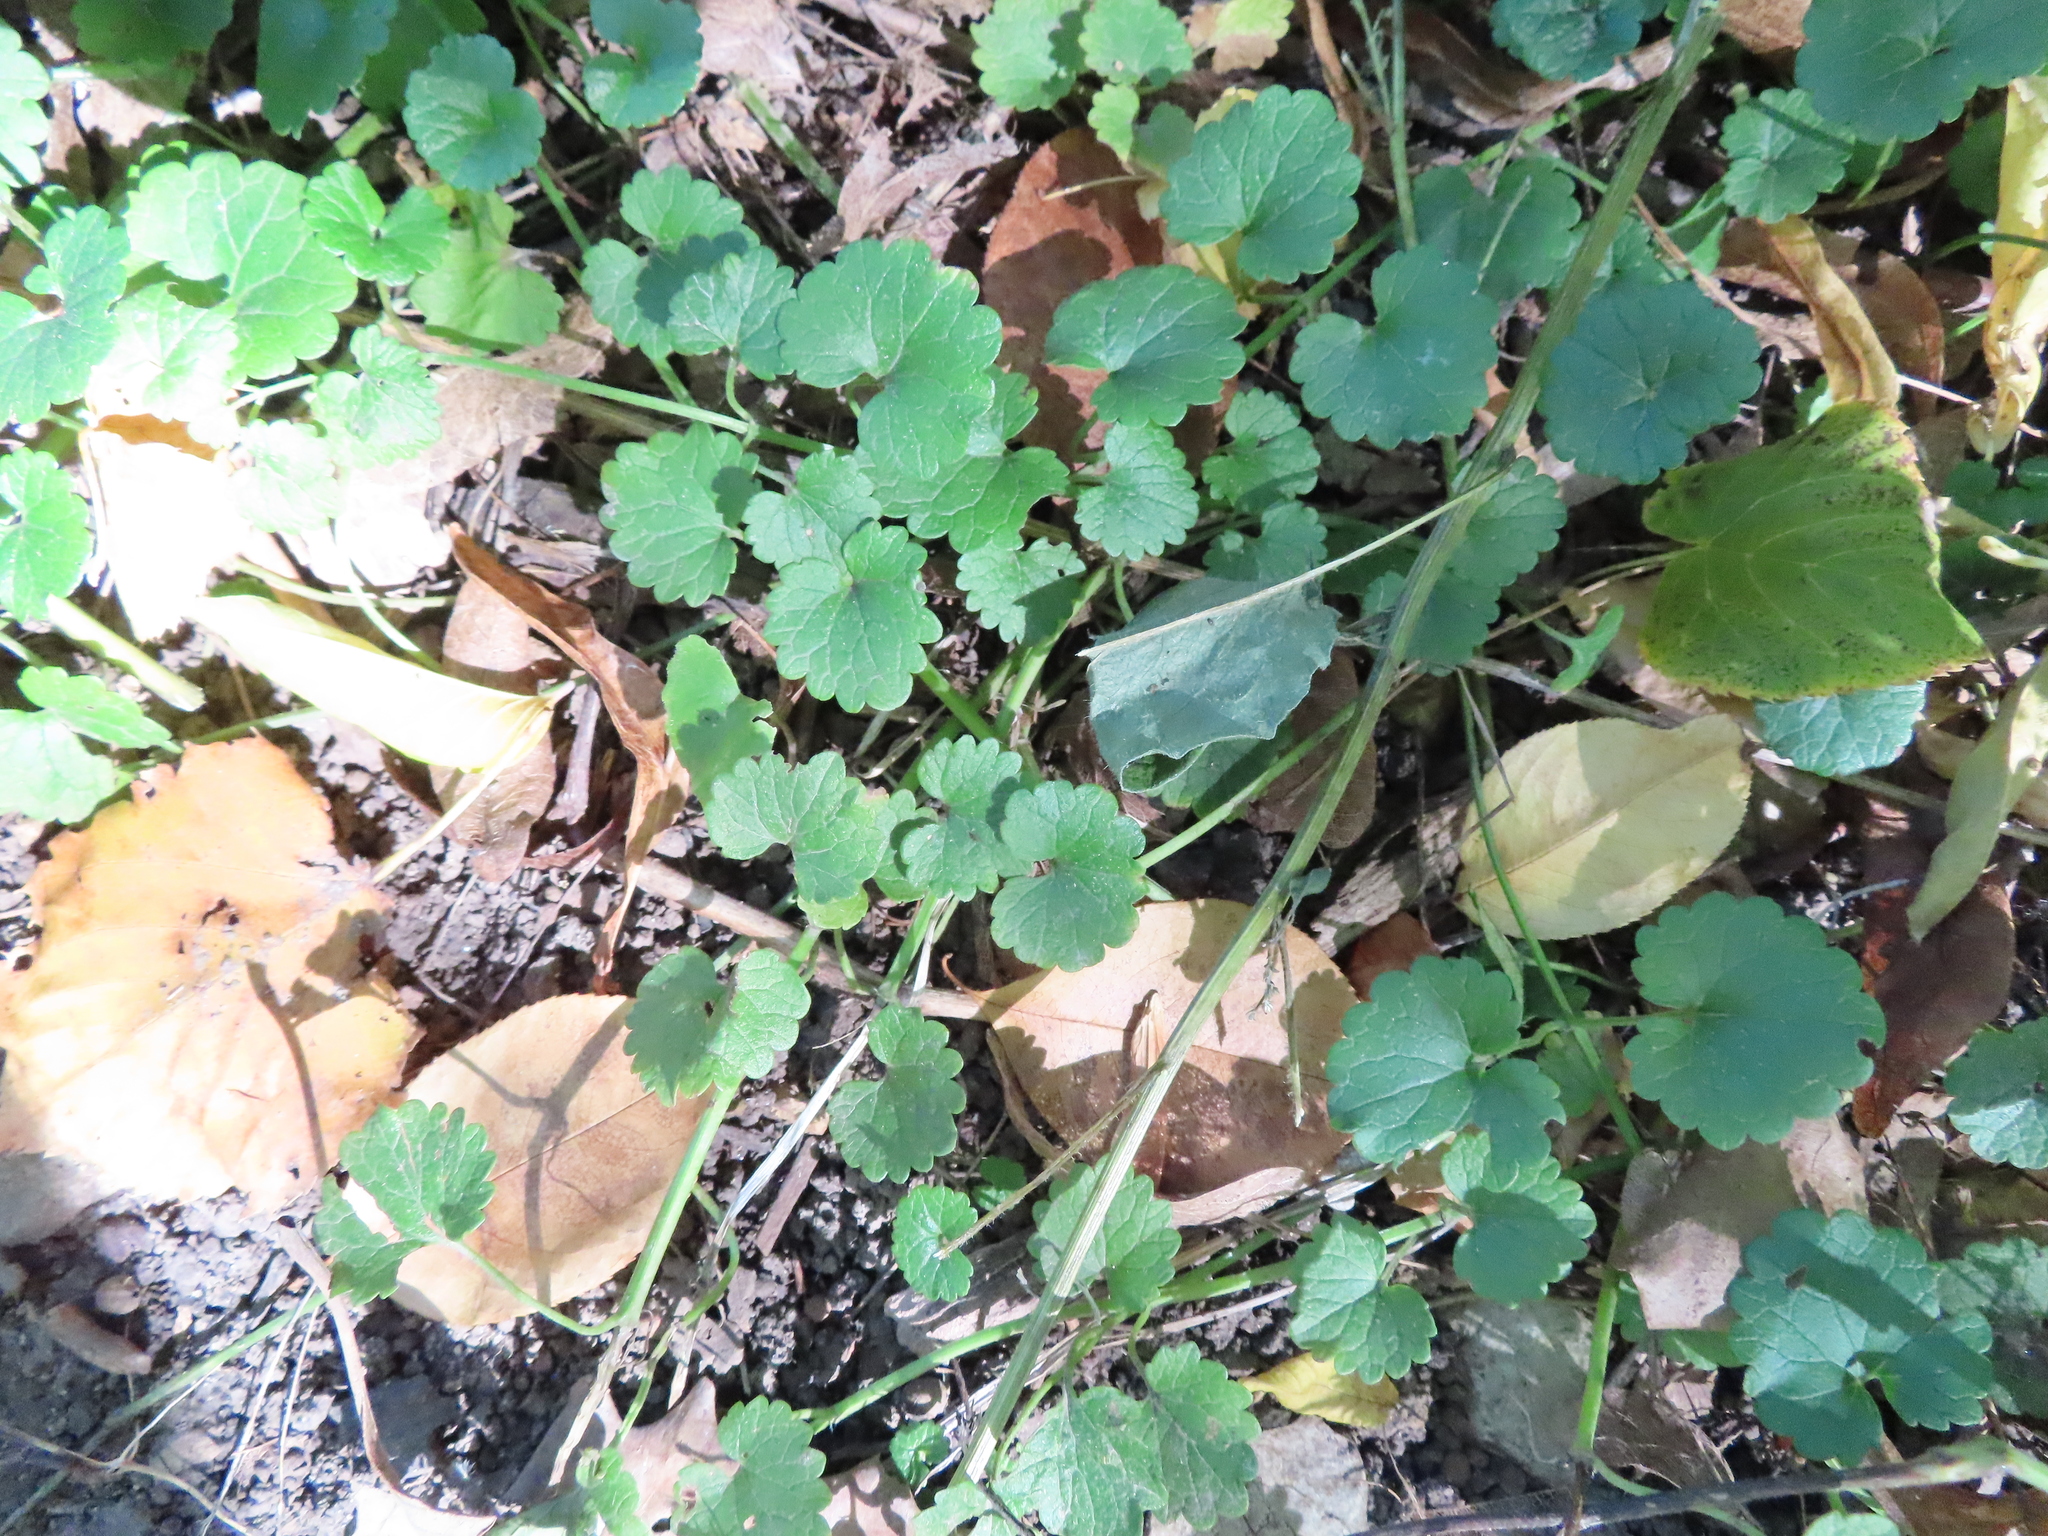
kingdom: Plantae
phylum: Tracheophyta
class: Magnoliopsida
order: Lamiales
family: Lamiaceae
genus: Glechoma
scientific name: Glechoma hederacea
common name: Ground ivy
